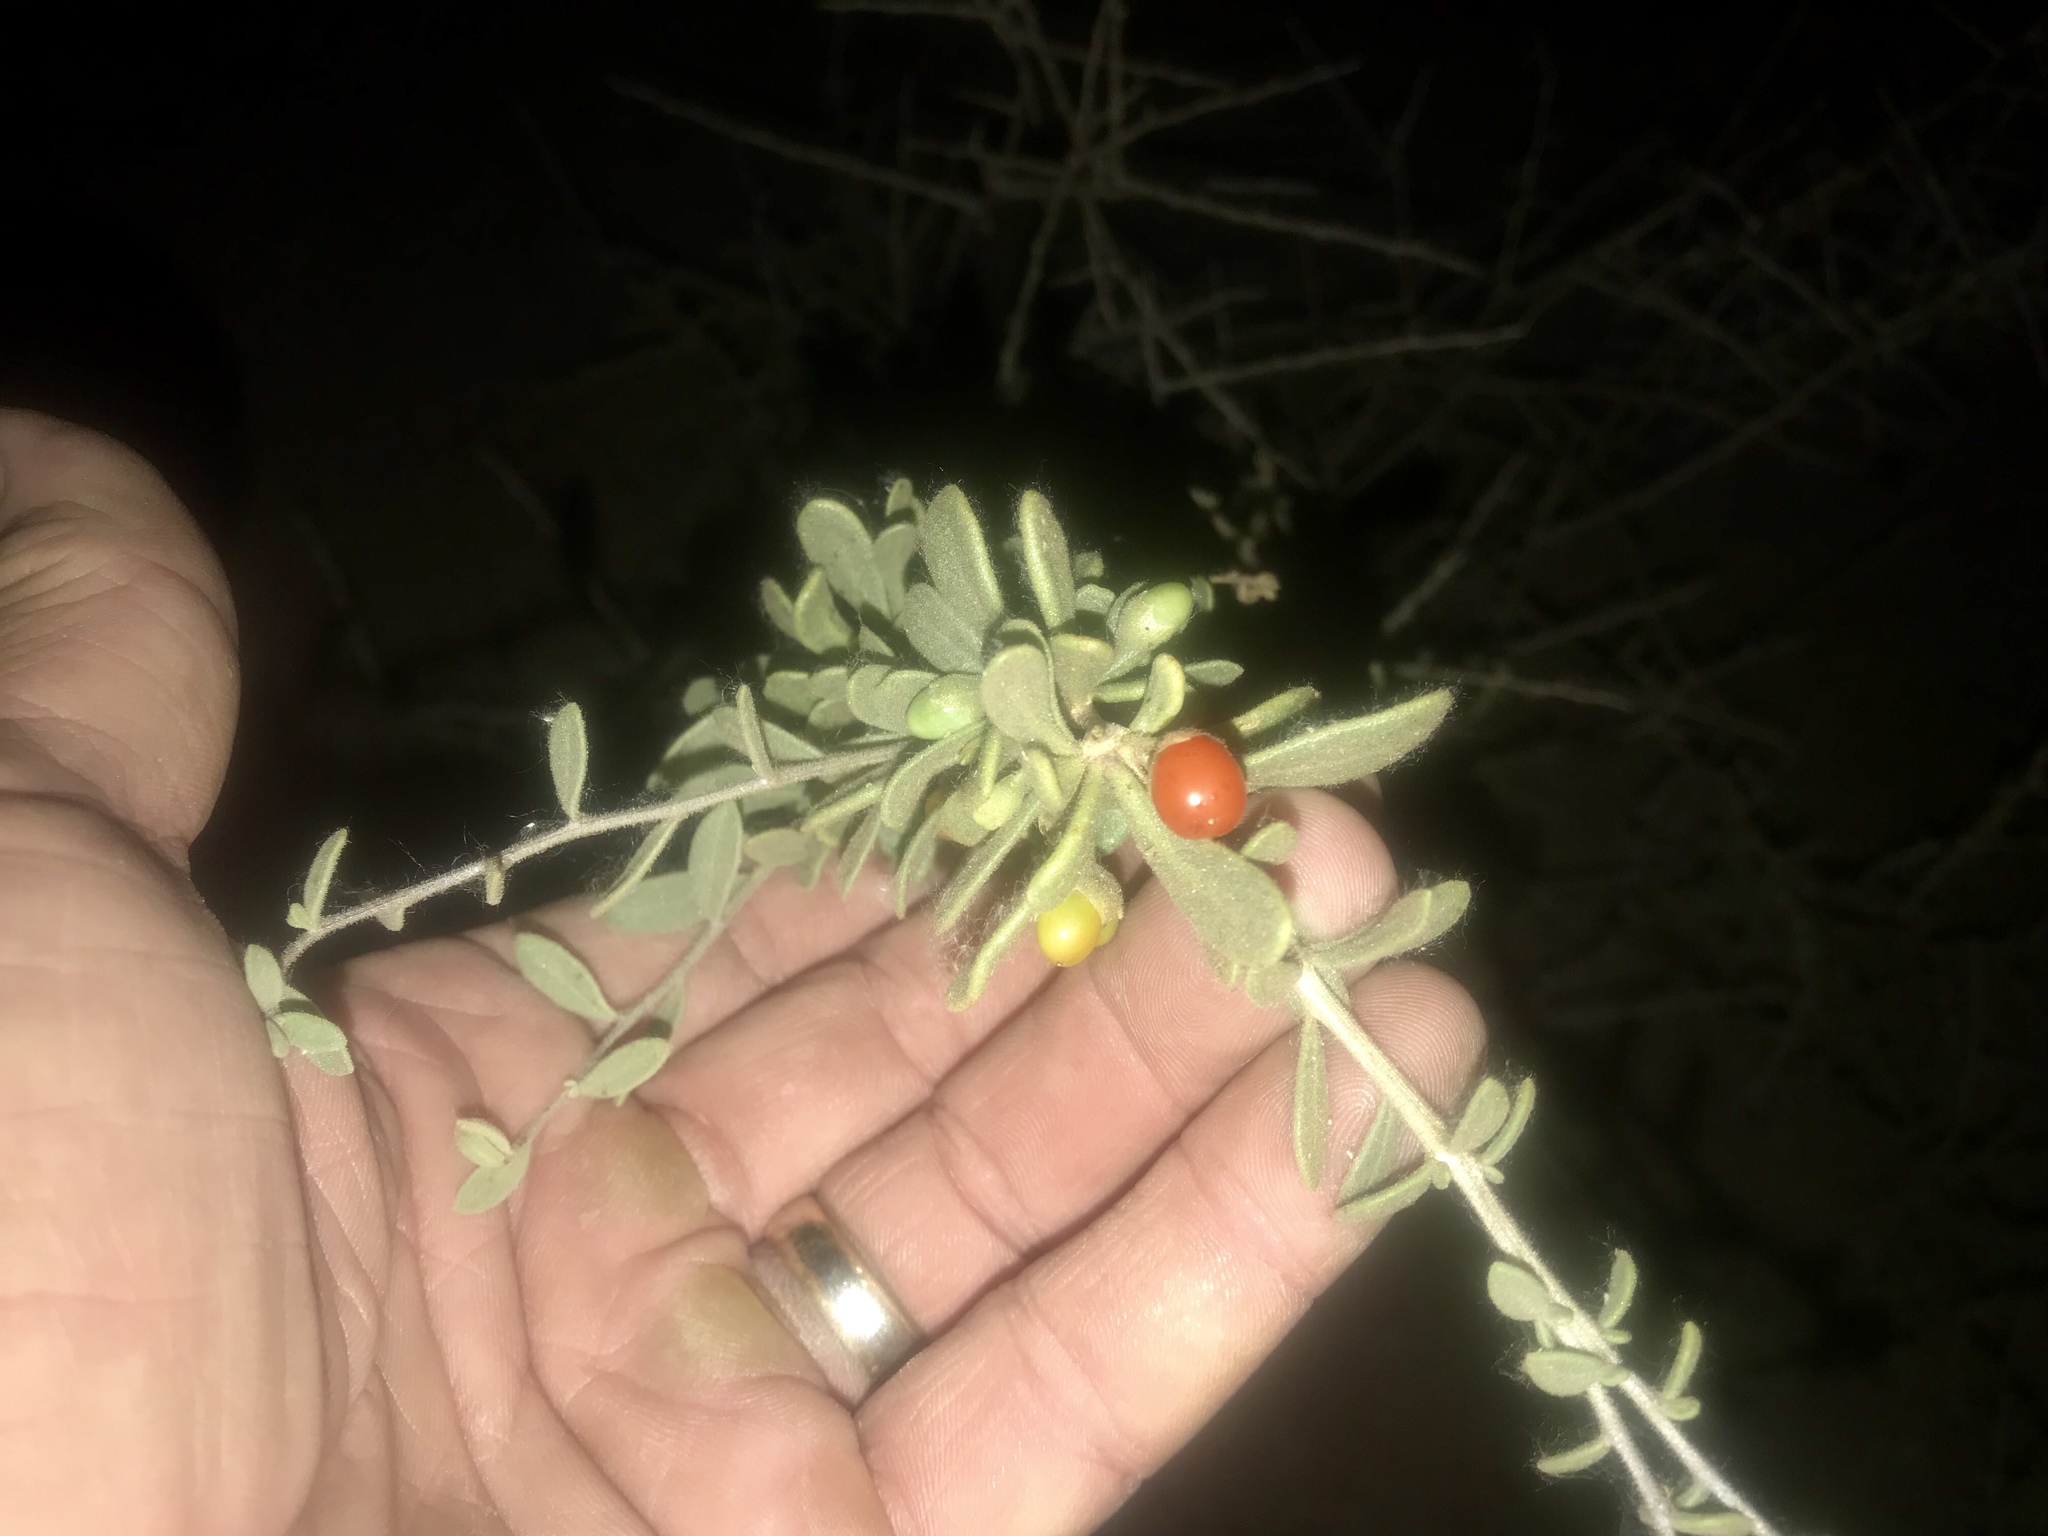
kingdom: Plantae
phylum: Tracheophyta
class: Magnoliopsida
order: Solanales
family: Solanaceae
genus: Lycium
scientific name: Lycium andersonii
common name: Water-jacket
